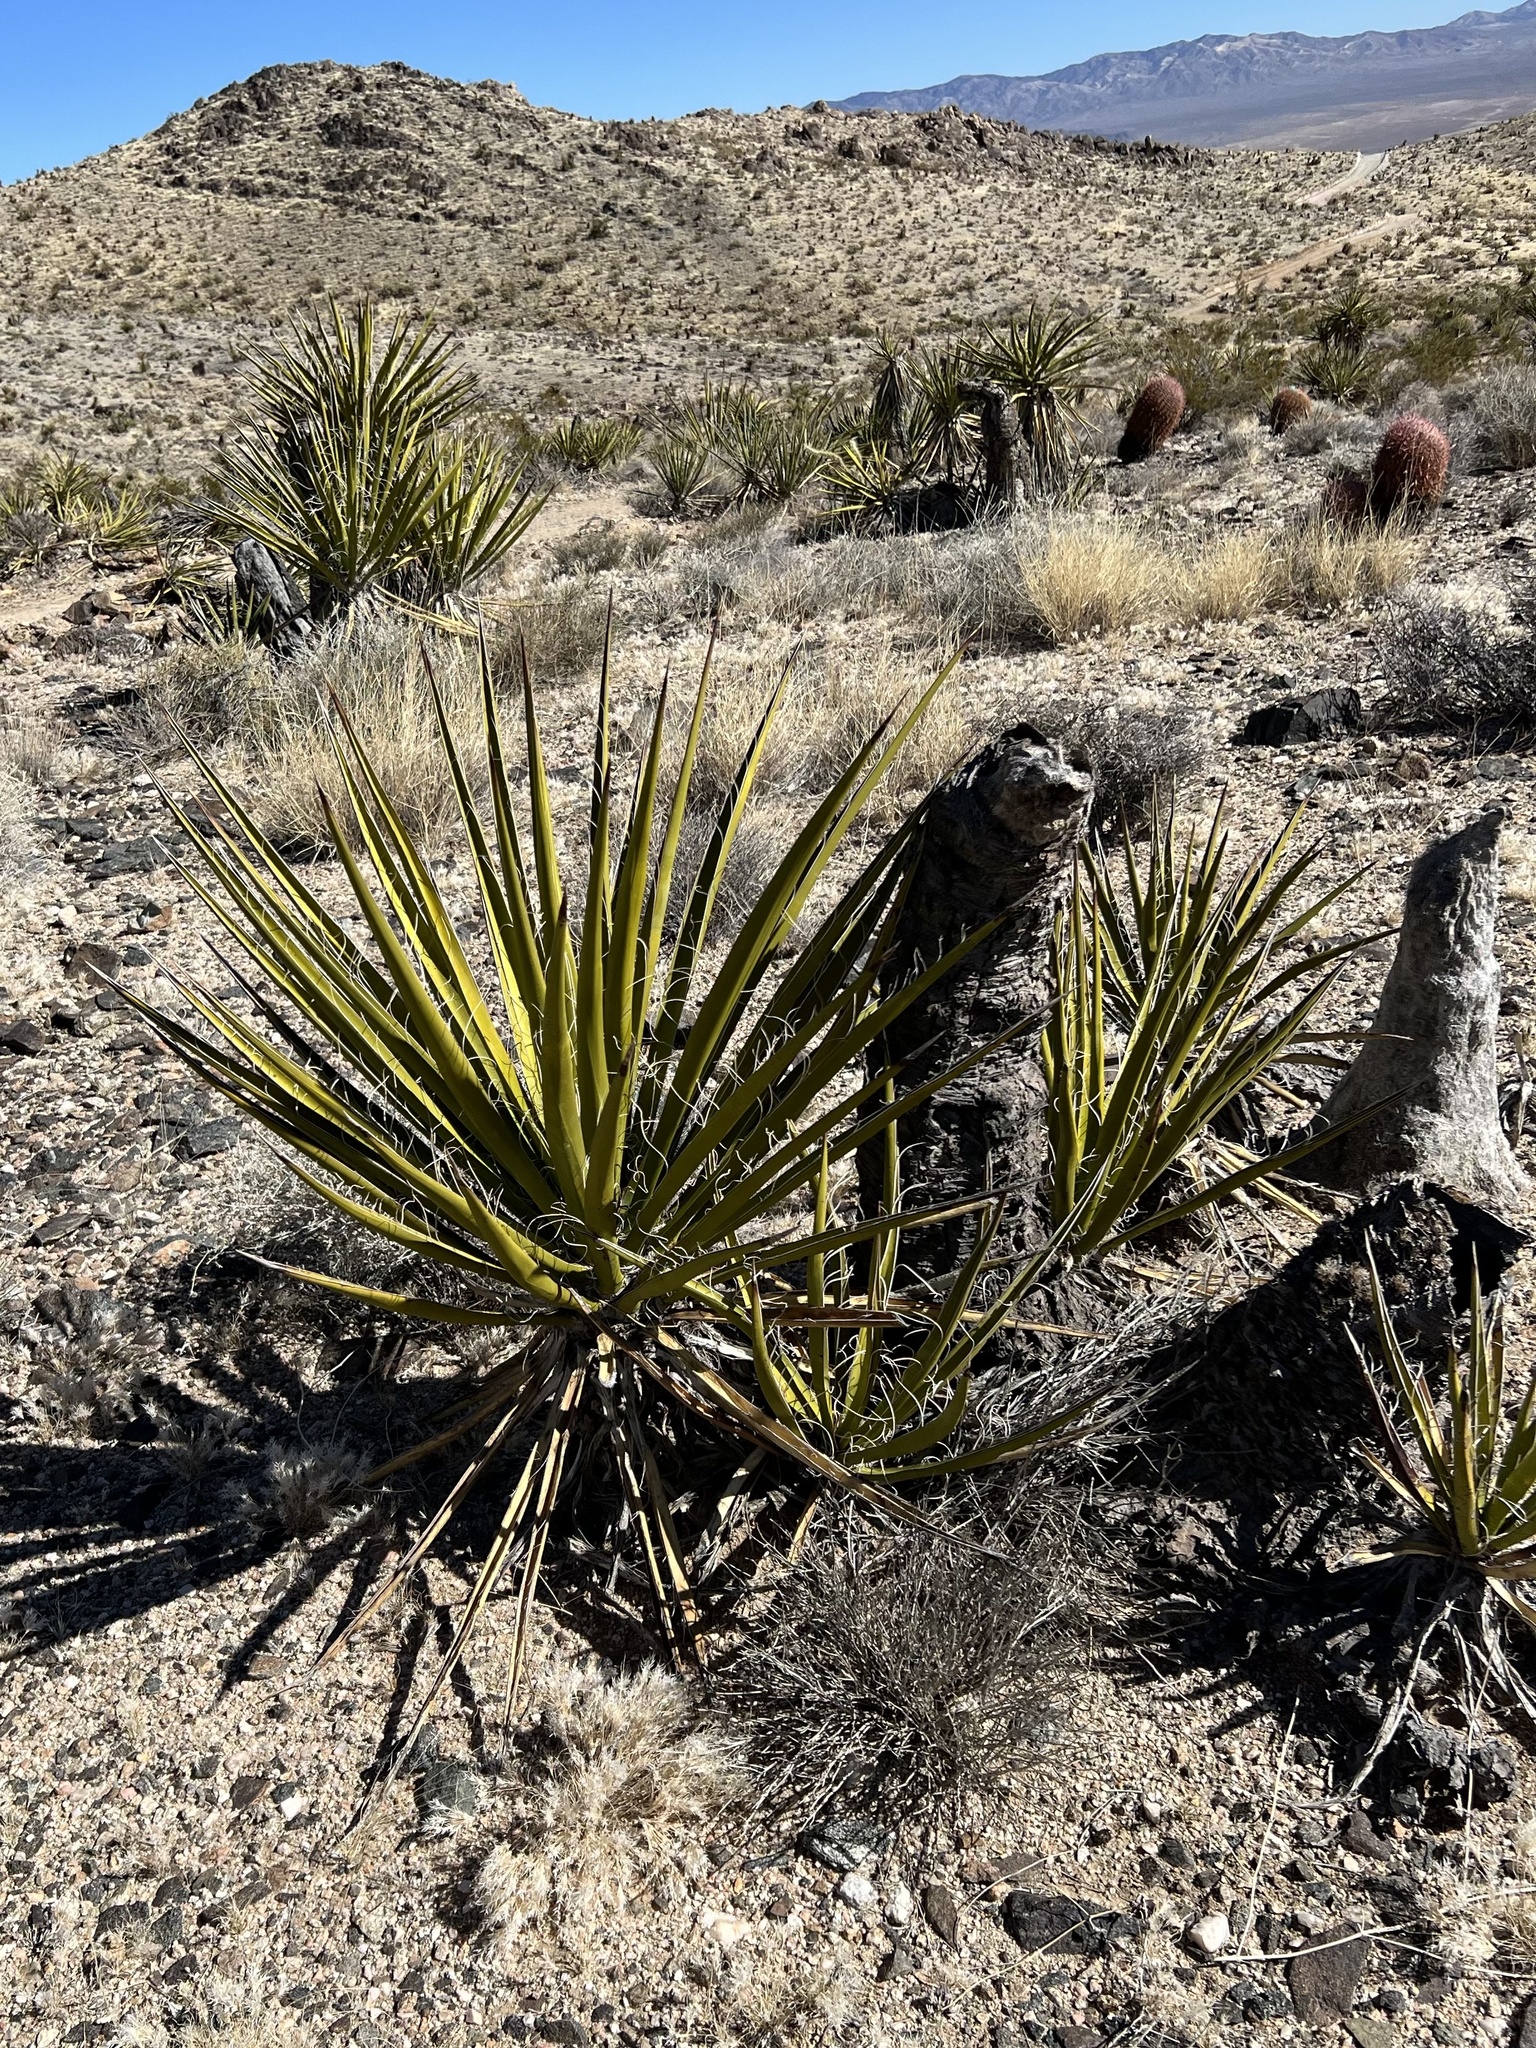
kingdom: Plantae
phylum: Tracheophyta
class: Liliopsida
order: Asparagales
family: Asparagaceae
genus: Yucca
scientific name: Yucca schidigera
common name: Mojave yucca
